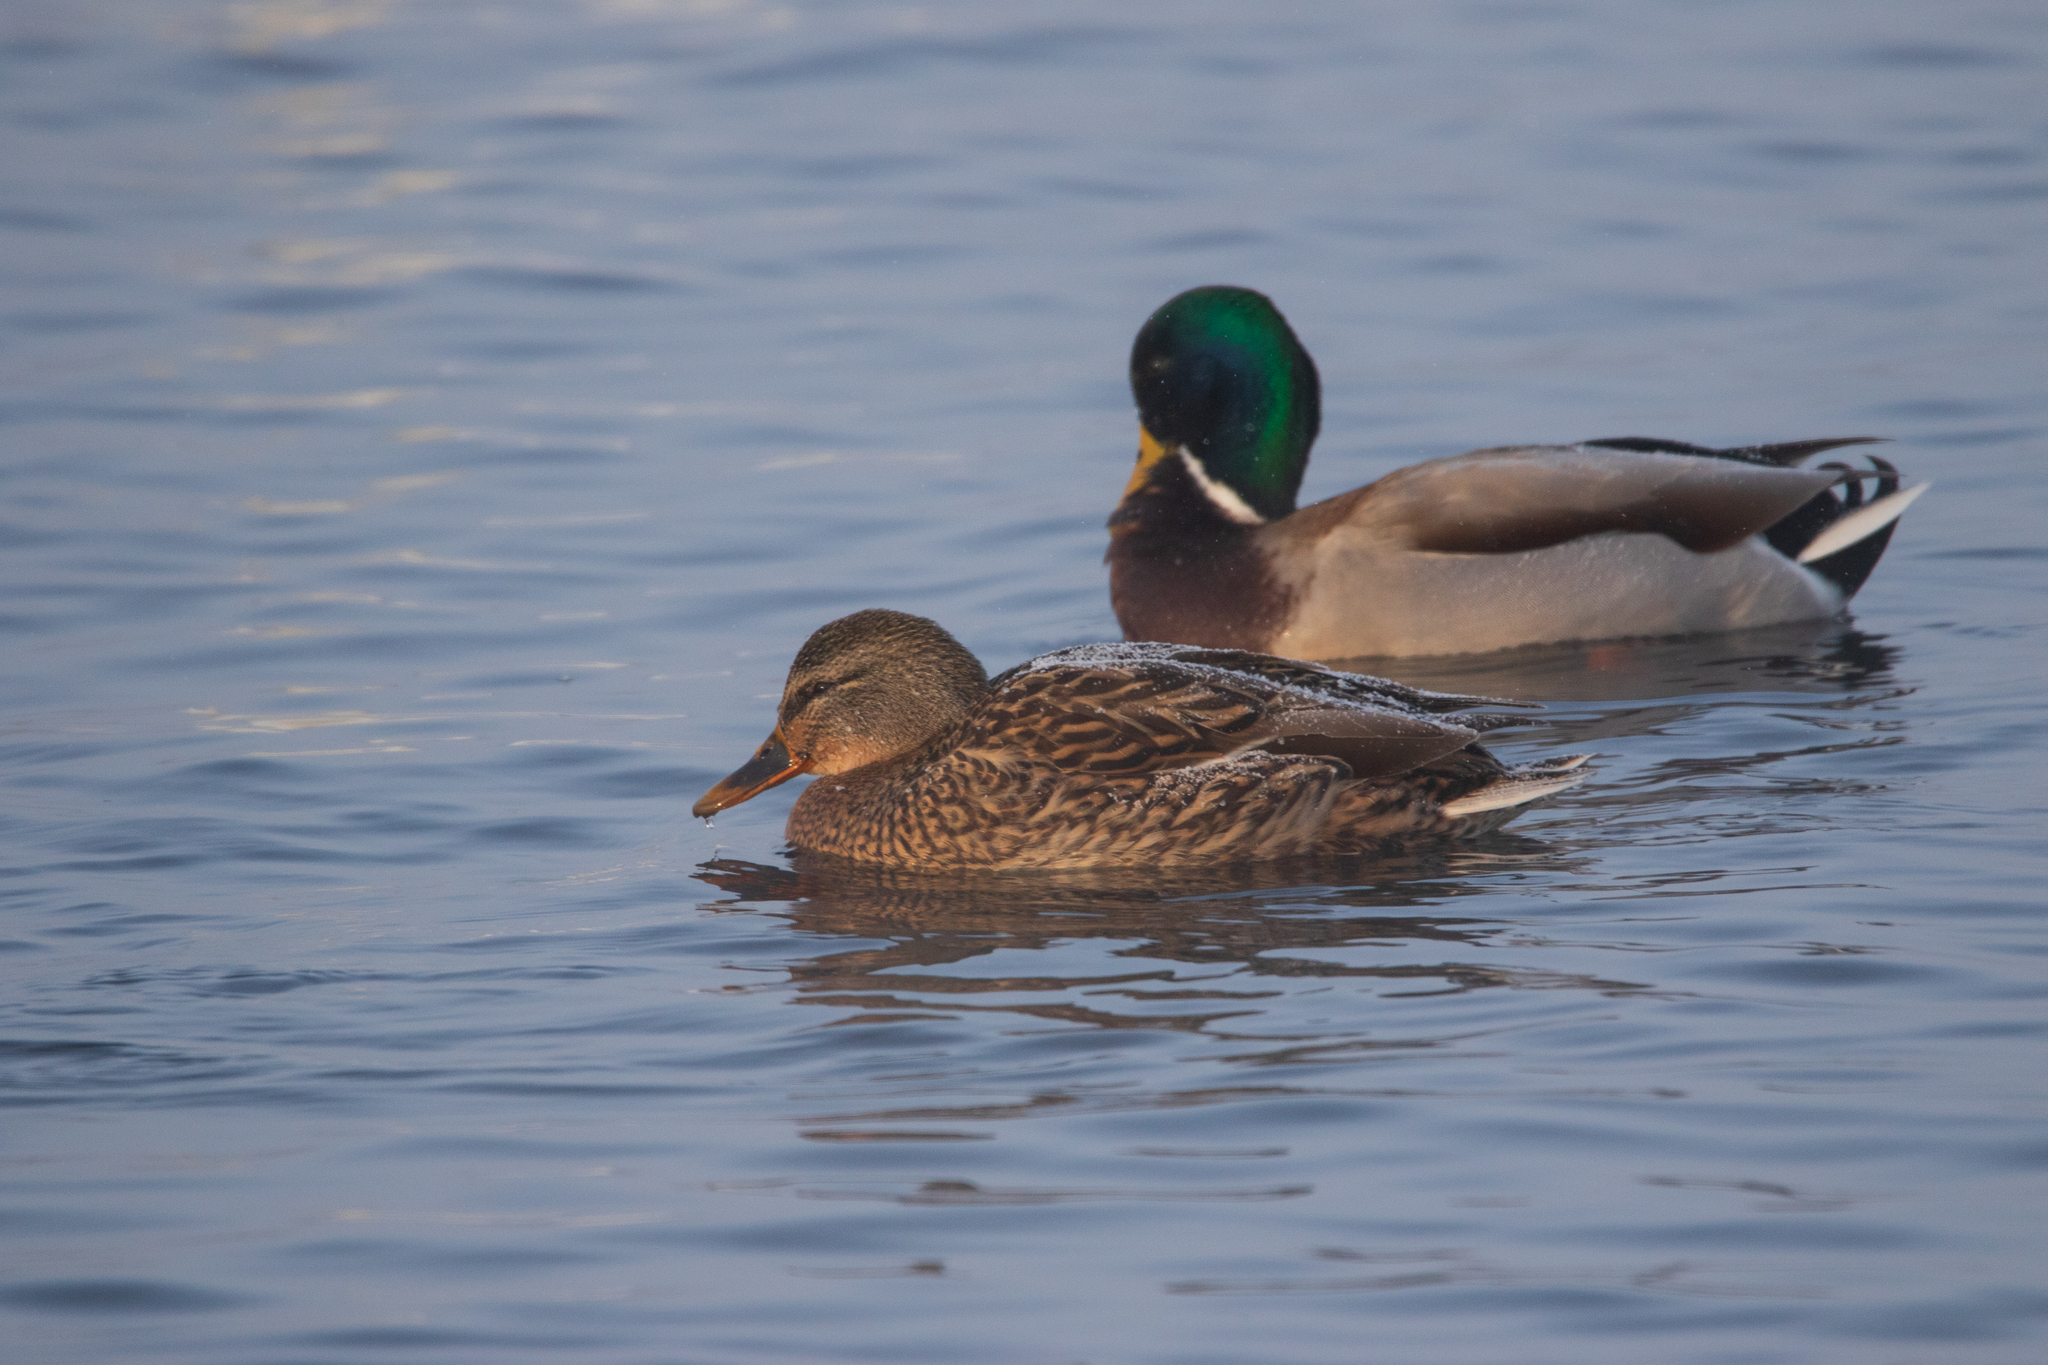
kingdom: Animalia
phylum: Chordata
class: Aves
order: Anseriformes
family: Anatidae
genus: Anas
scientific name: Anas platyrhynchos
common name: Mallard
